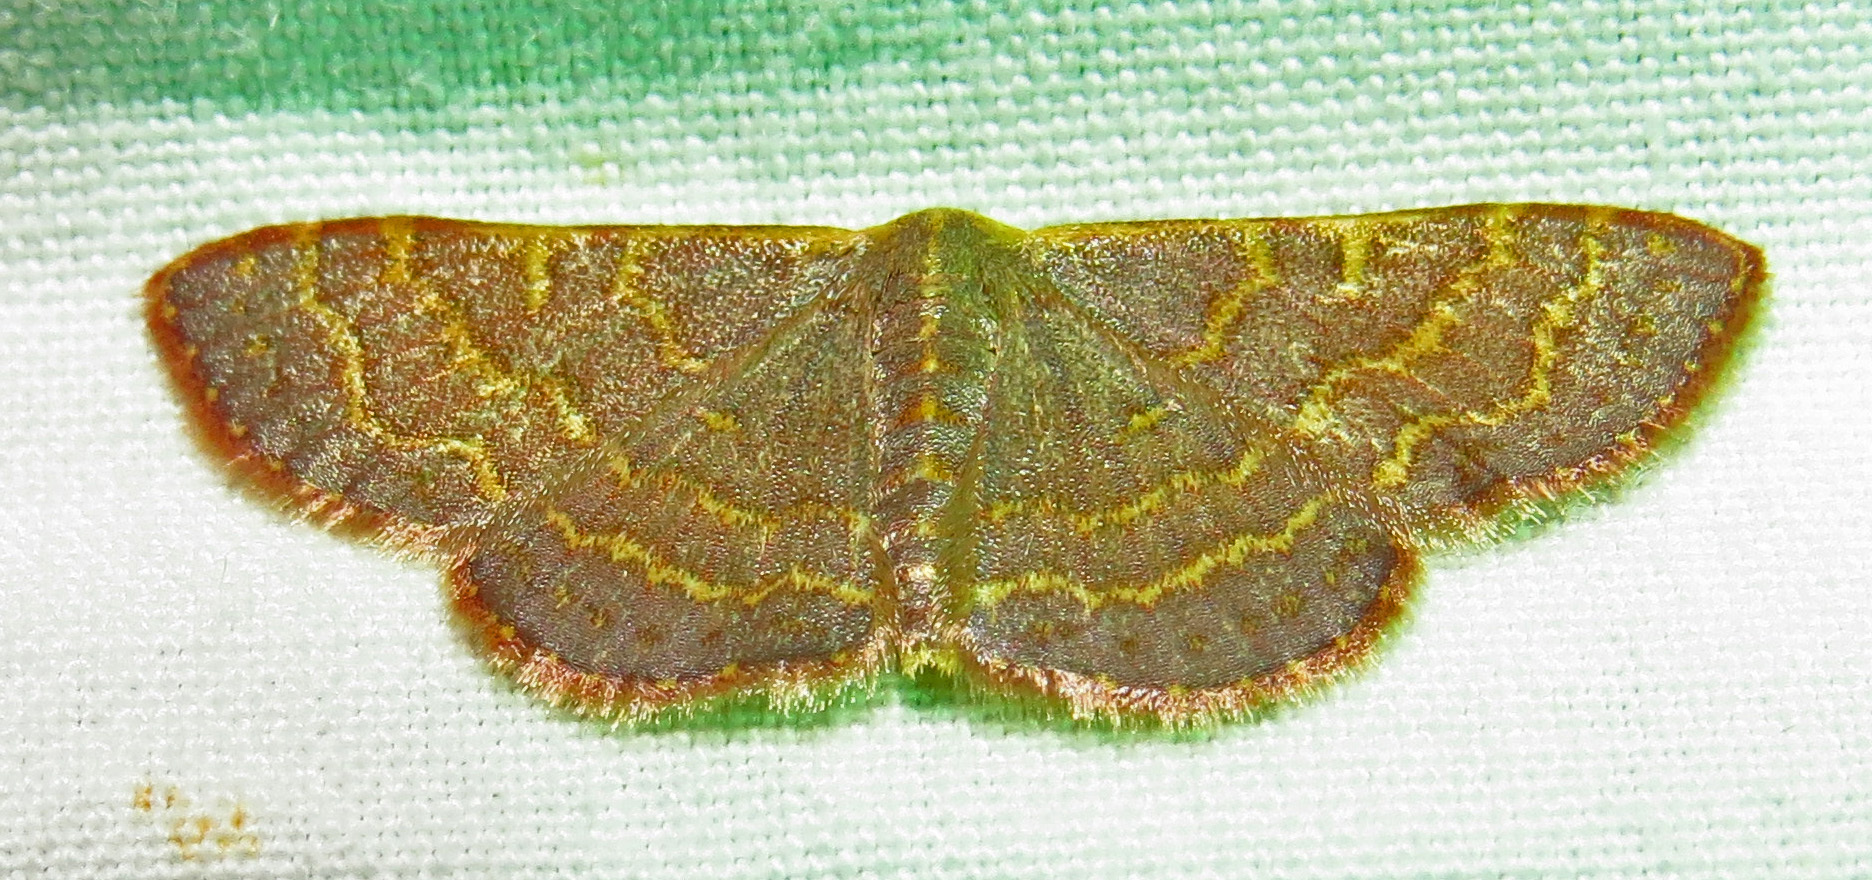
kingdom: Animalia
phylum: Arthropoda
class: Insecta
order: Lepidoptera
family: Geometridae
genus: Leptostales
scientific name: Leptostales pannaria
